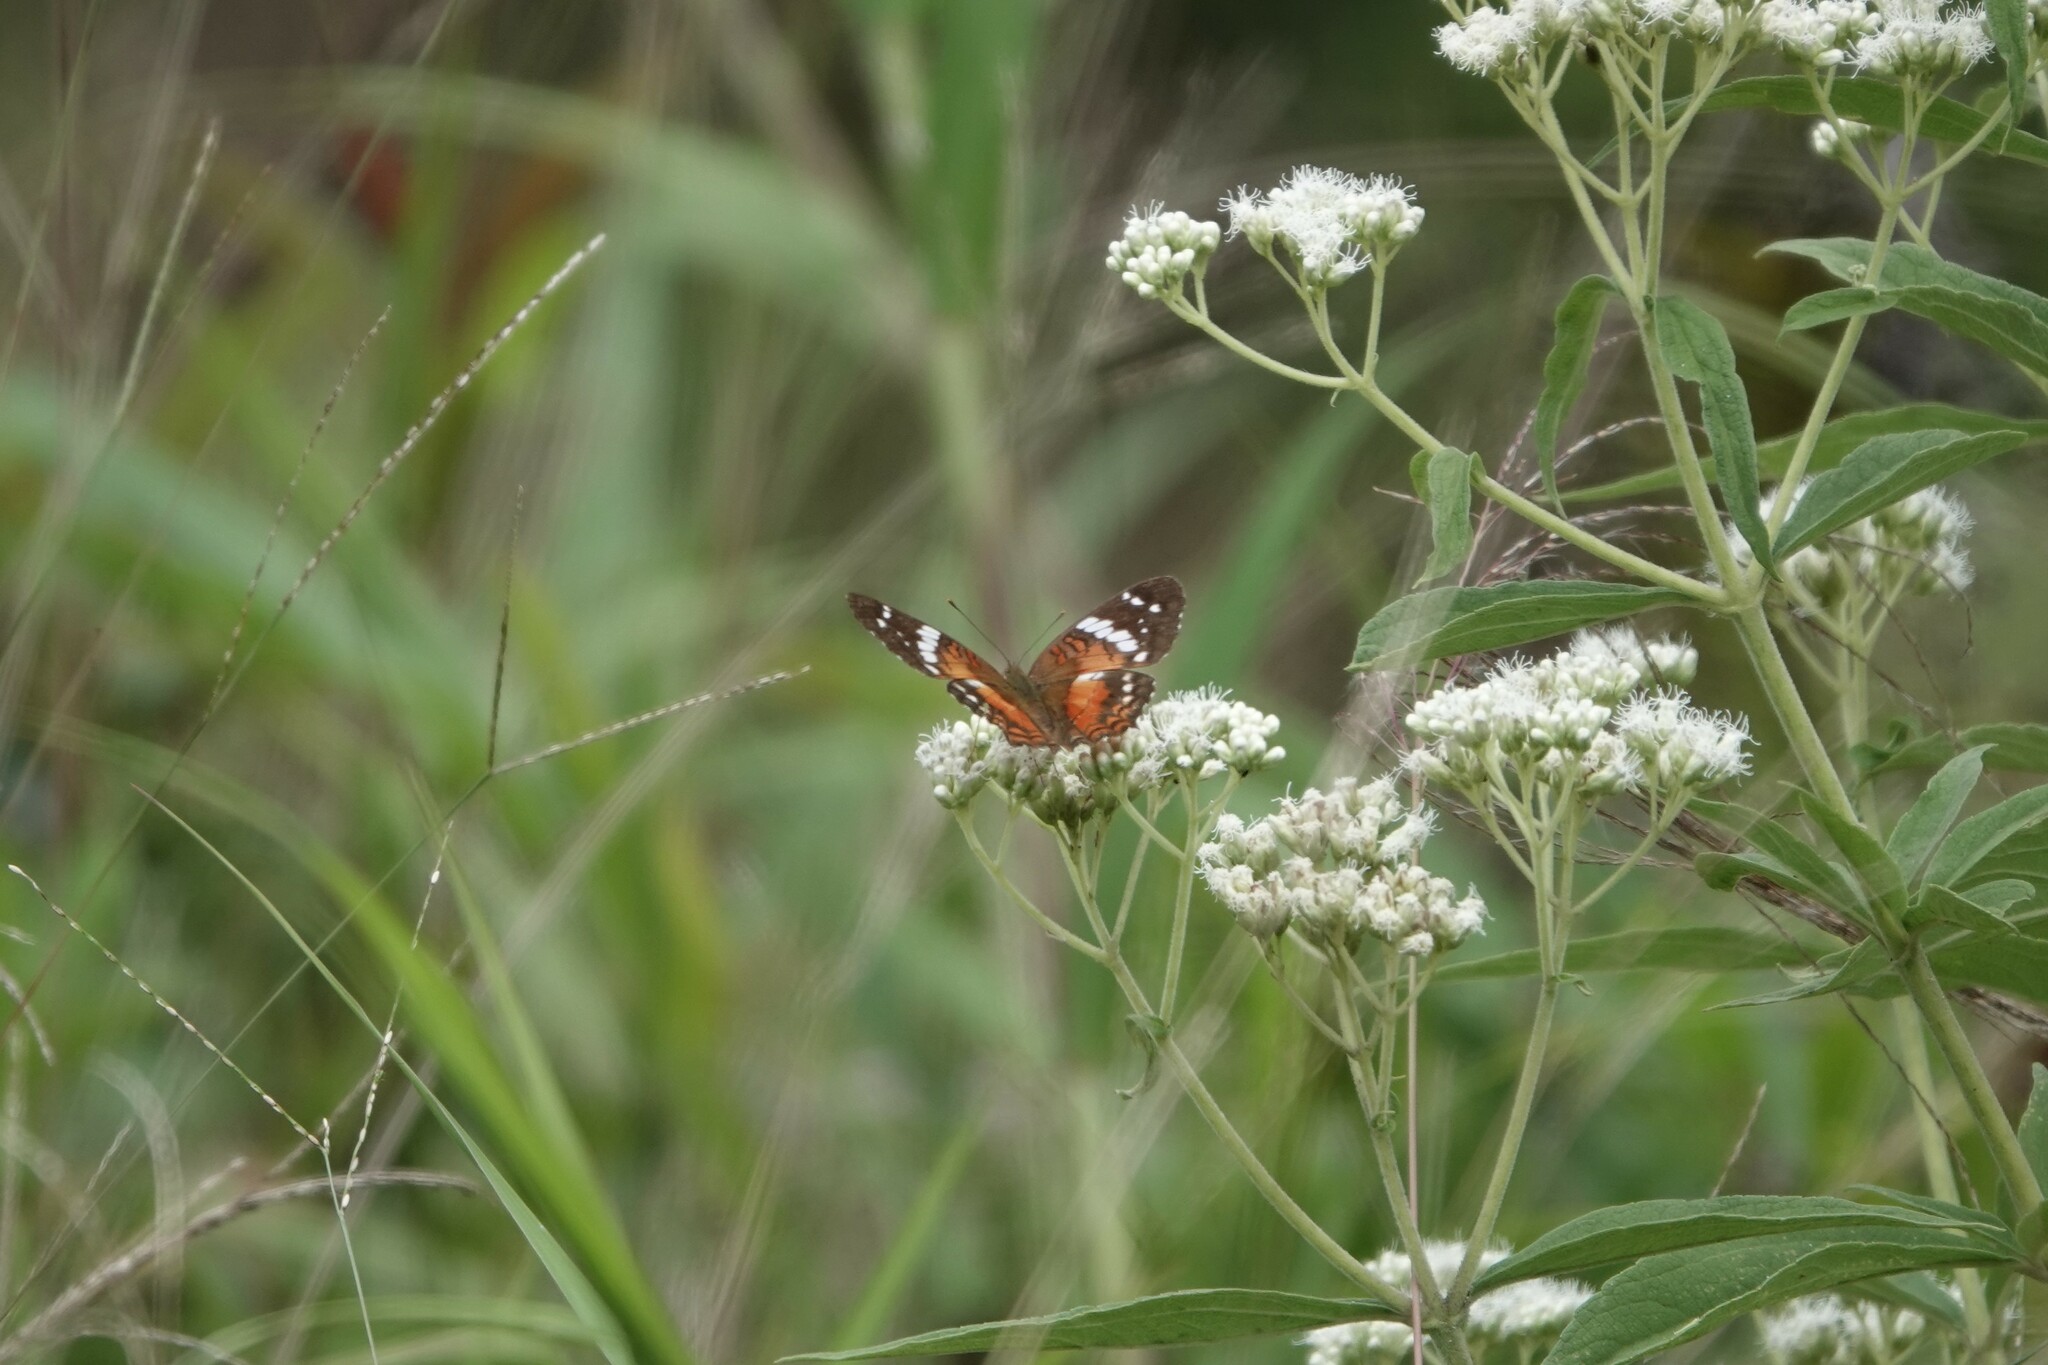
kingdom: Animalia
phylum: Arthropoda
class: Insecta
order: Lepidoptera
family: Nymphalidae
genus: Anartia
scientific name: Anartia amathea
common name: Red peacock
